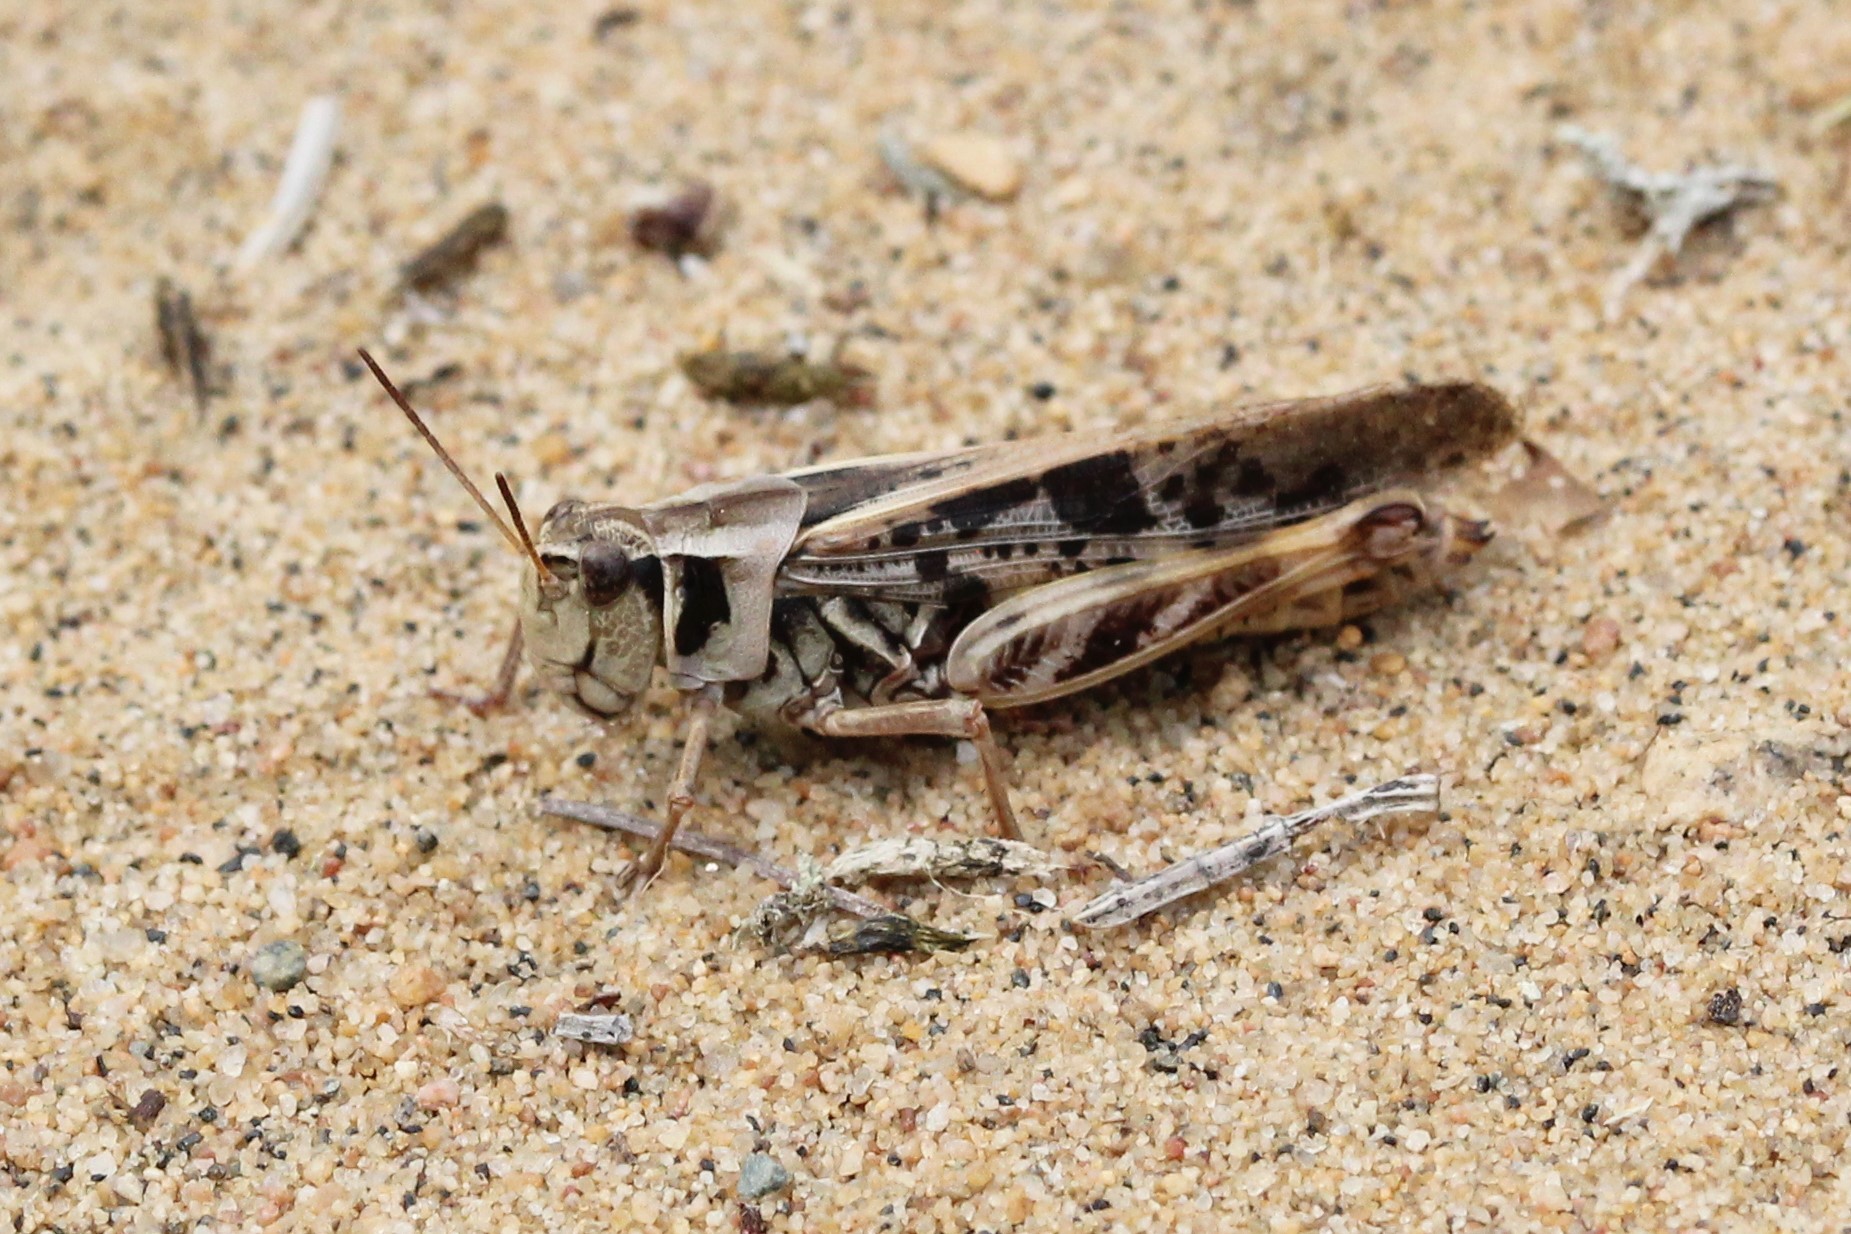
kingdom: Animalia
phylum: Arthropoda
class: Insecta
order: Orthoptera
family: Acrididae
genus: Camnula
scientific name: Camnula pellucida
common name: Clear-winged grasshopper
